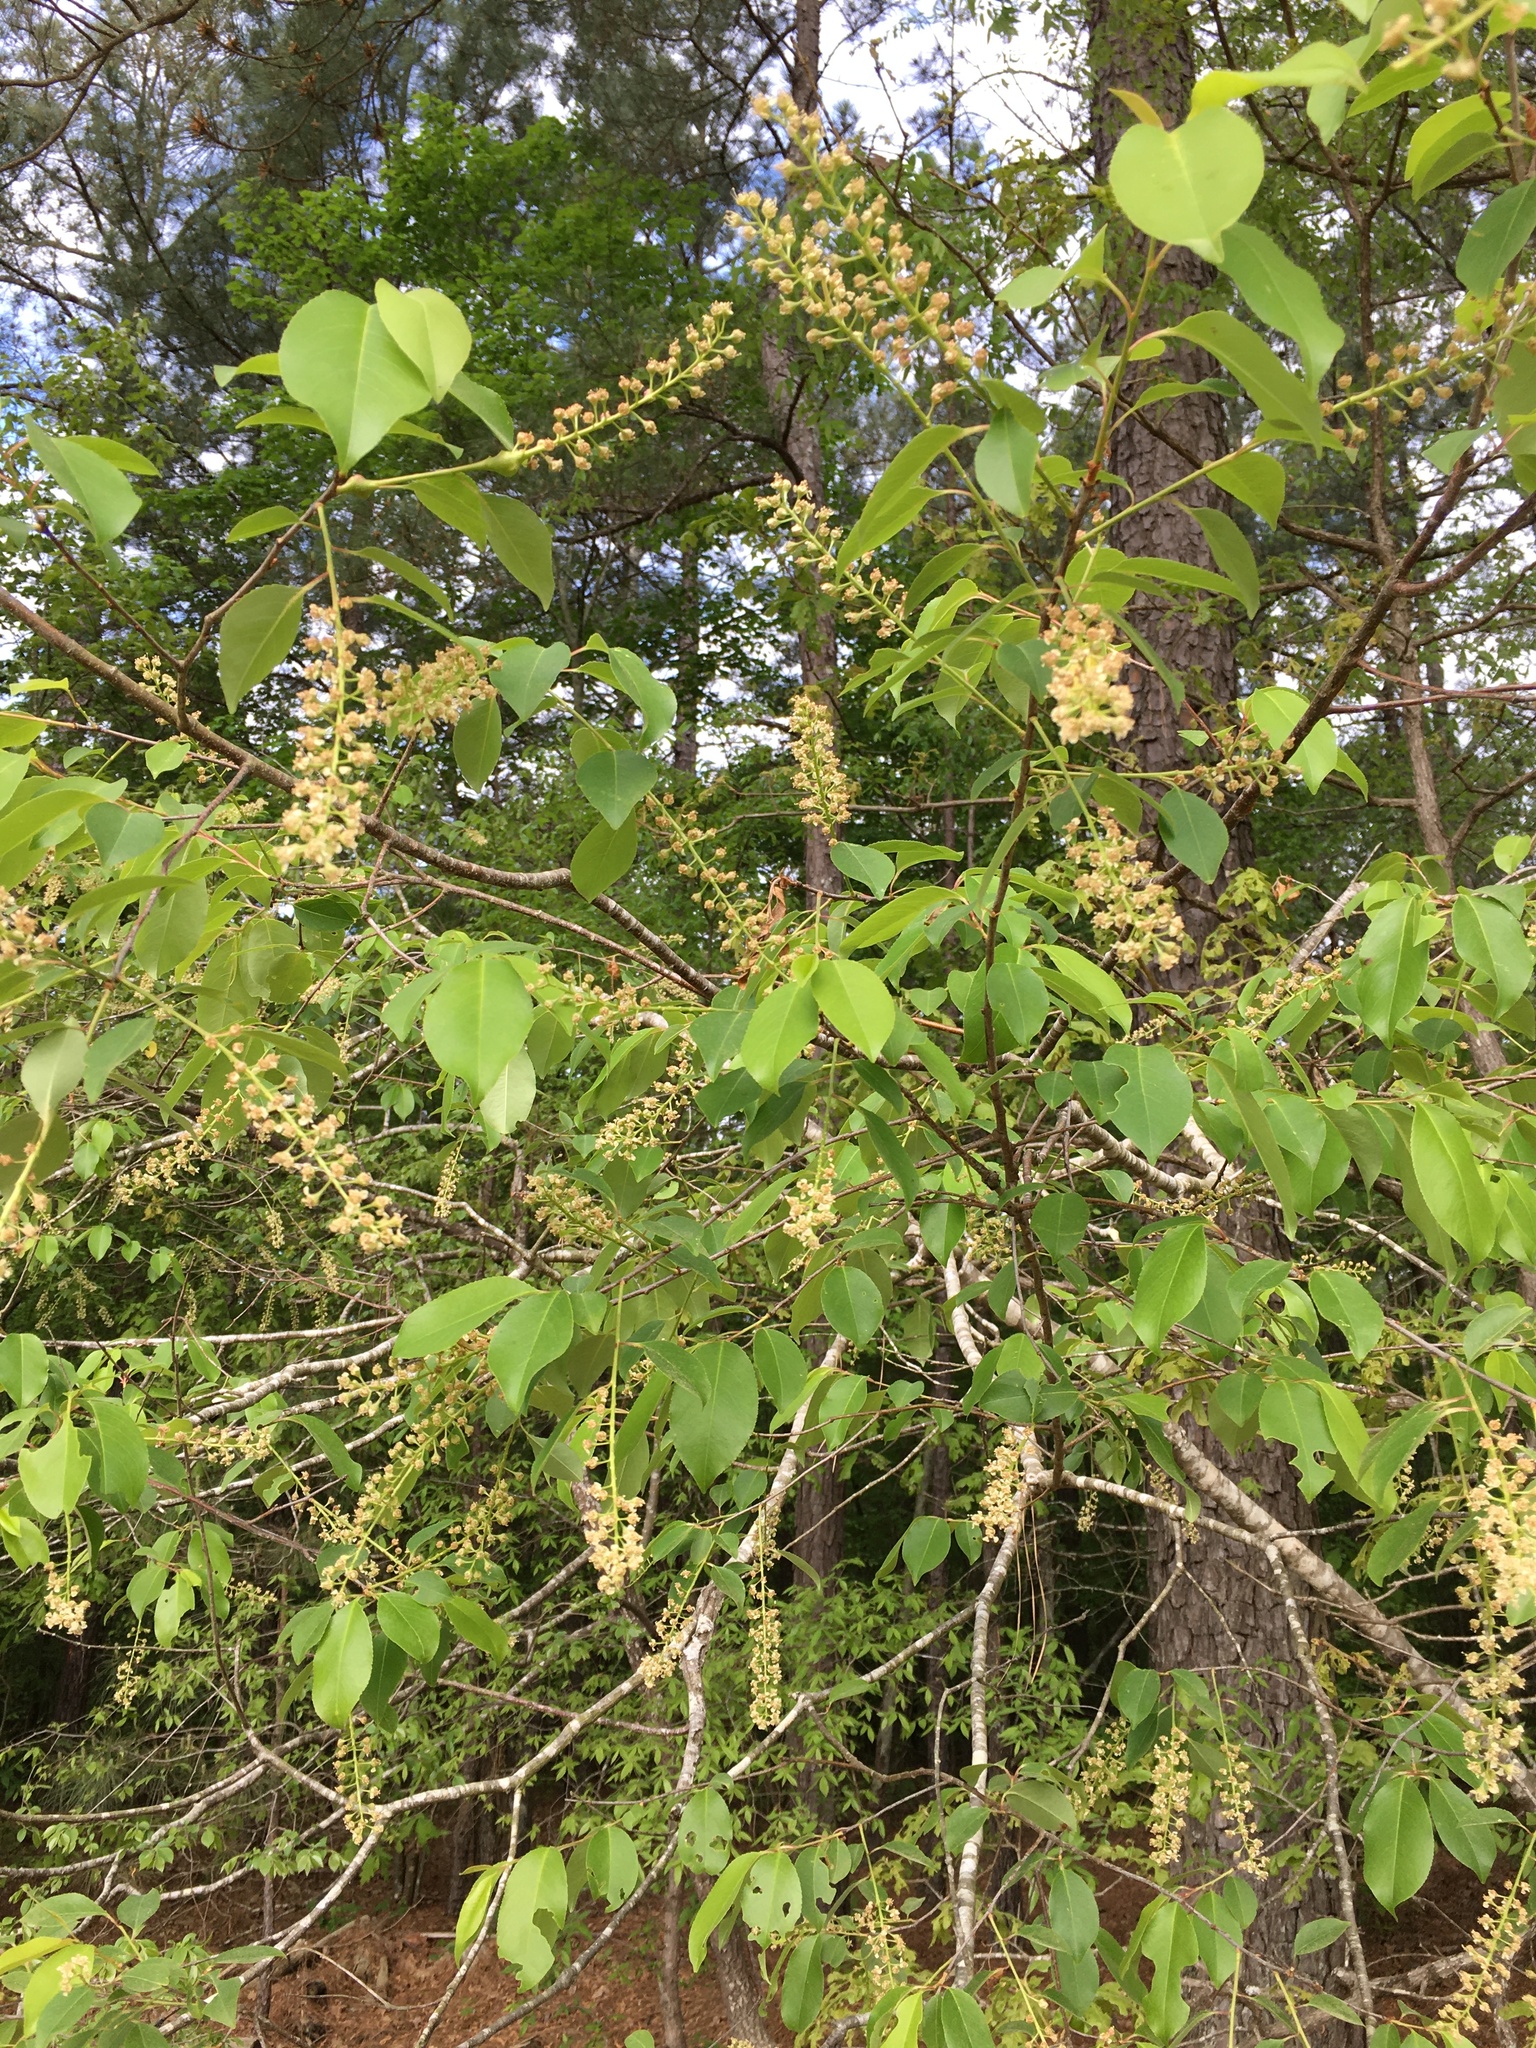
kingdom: Plantae
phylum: Tracheophyta
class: Magnoliopsida
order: Rosales
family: Rosaceae
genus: Prunus
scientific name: Prunus serotina
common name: Black cherry
